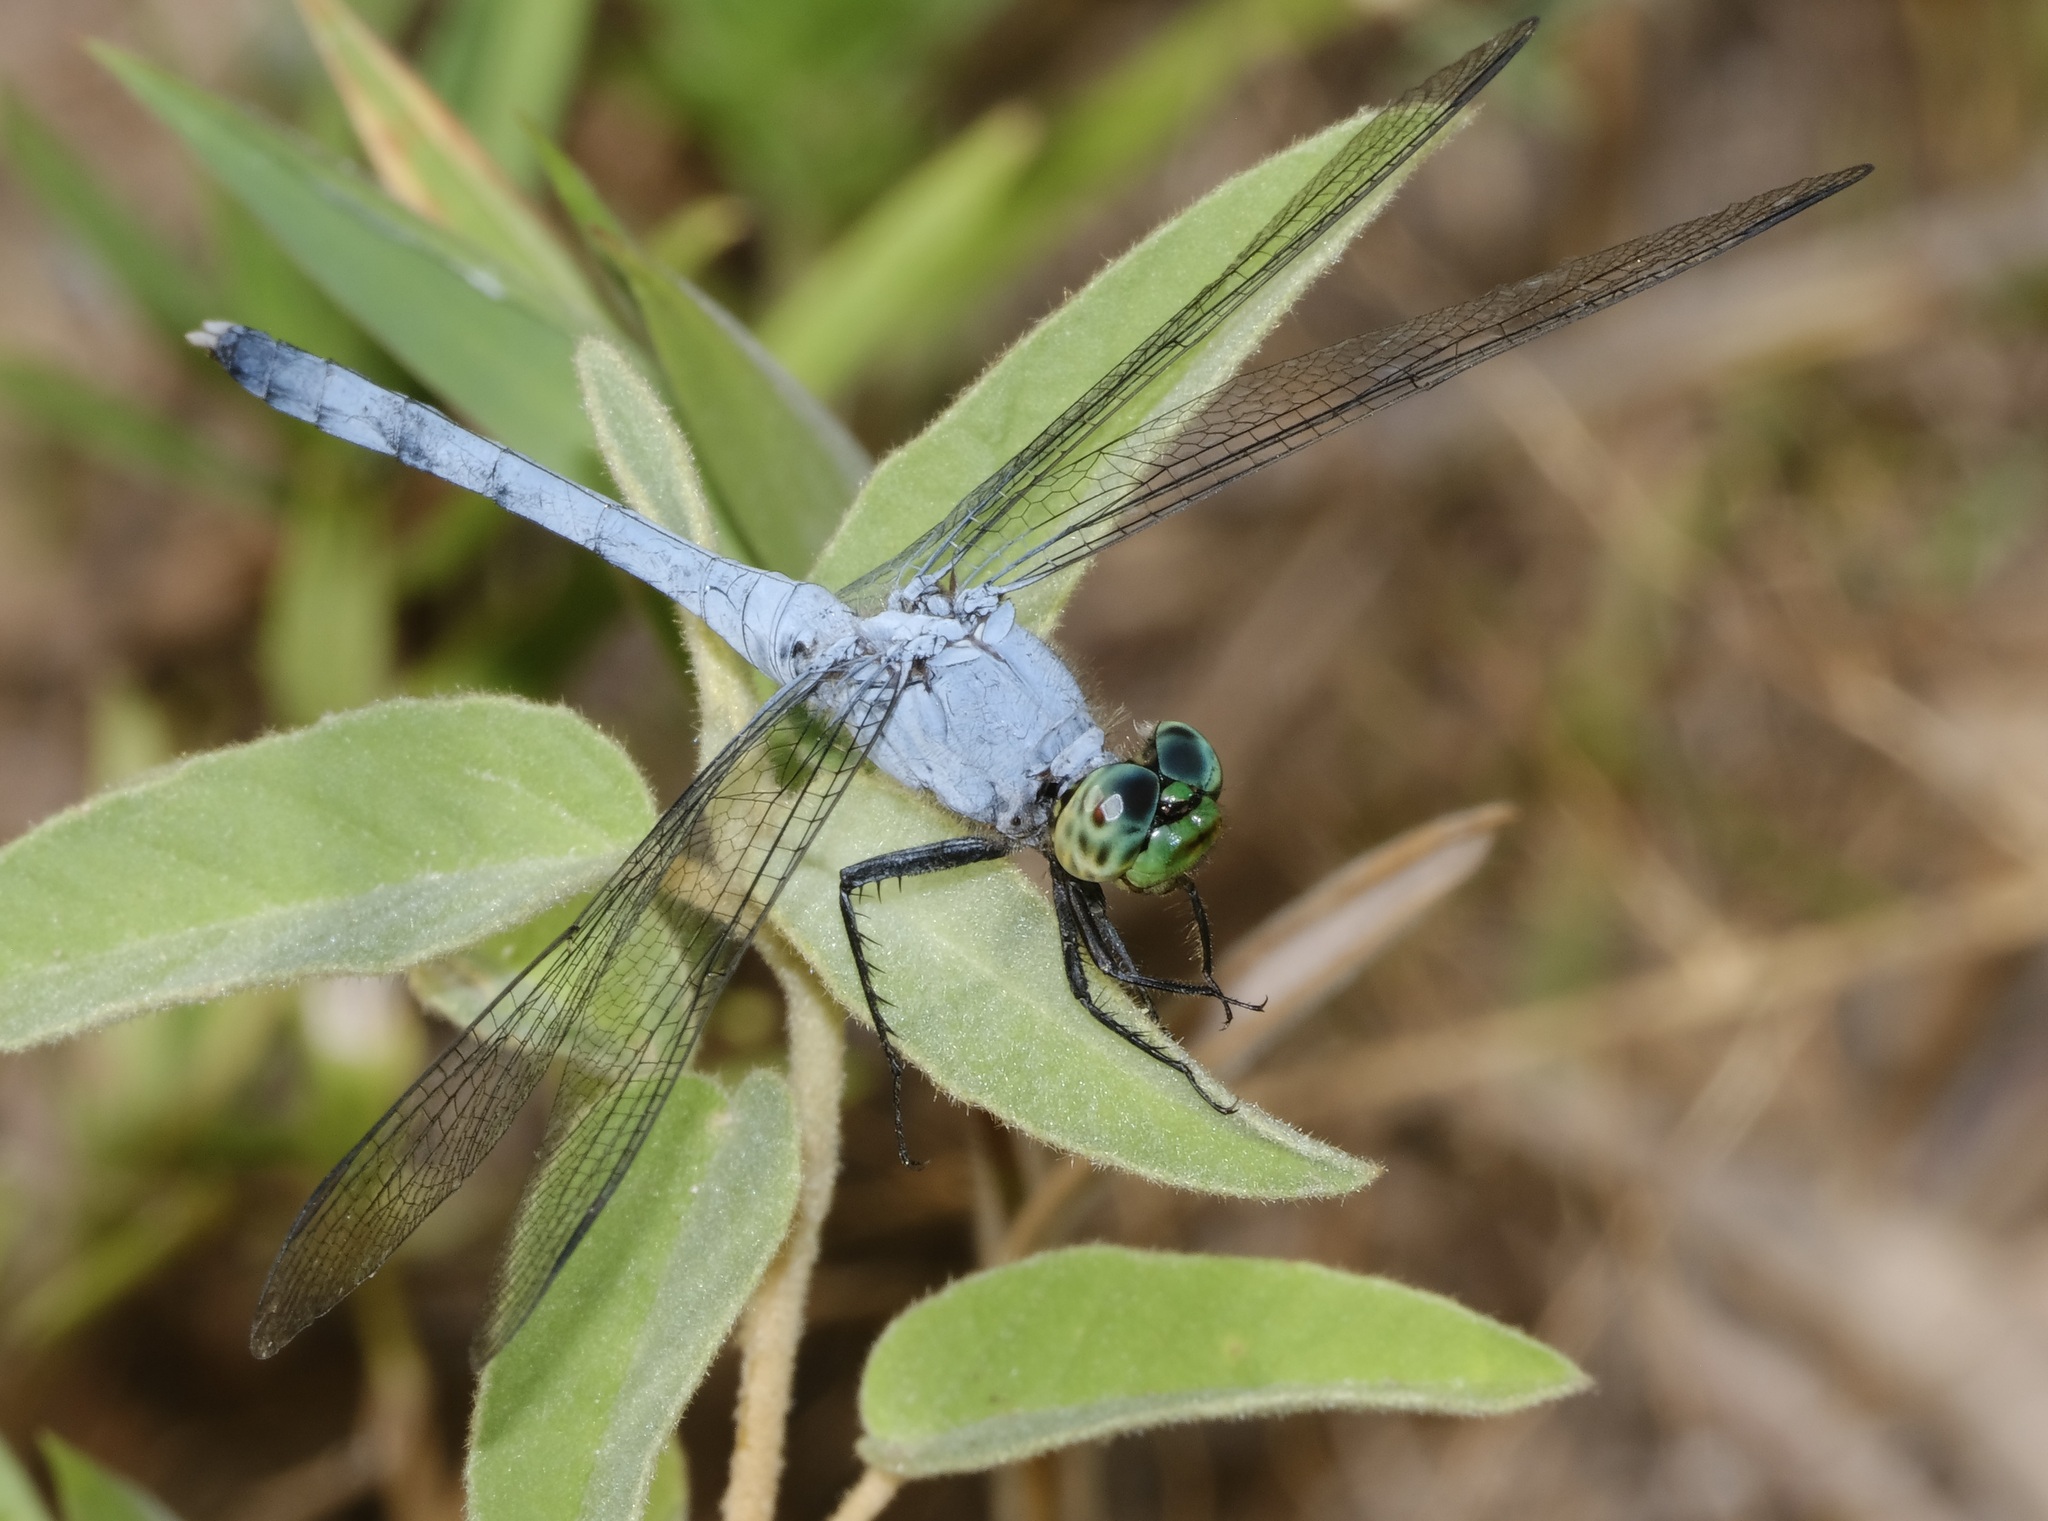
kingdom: Animalia
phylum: Arthropoda
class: Insecta
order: Odonata
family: Libellulidae
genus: Erythemis
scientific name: Erythemis simplicicollis
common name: Eastern pondhawk
